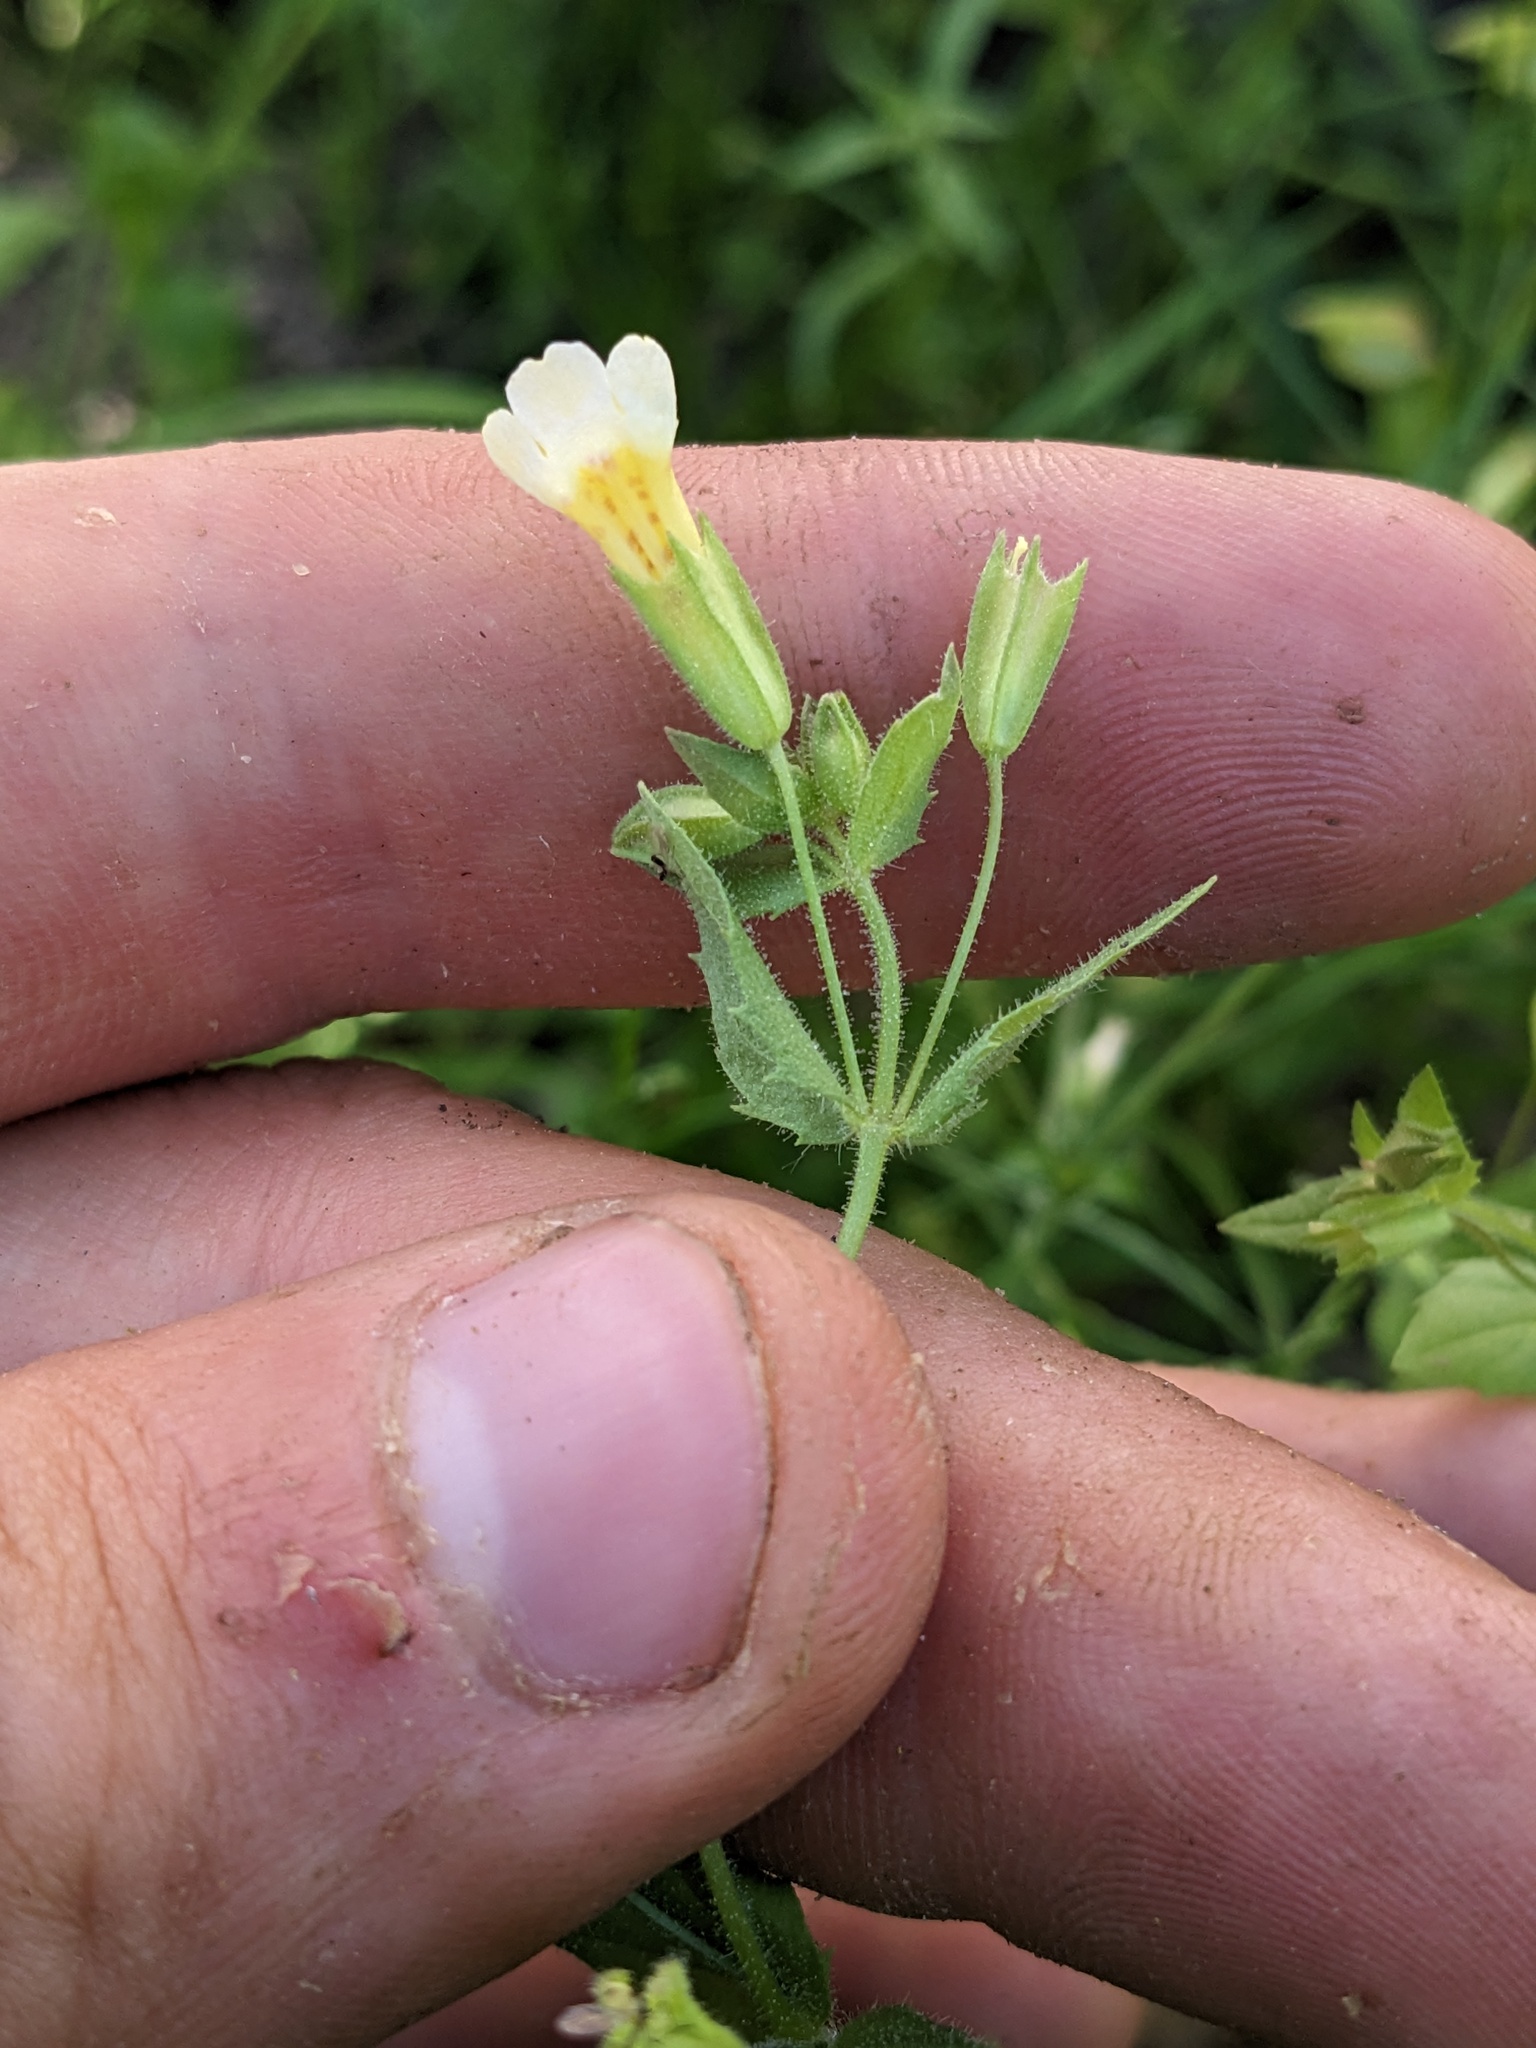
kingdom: Plantae
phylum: Tracheophyta
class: Magnoliopsida
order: Lamiales
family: Phrymaceae
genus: Erythranthe
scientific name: Erythranthe latidens
